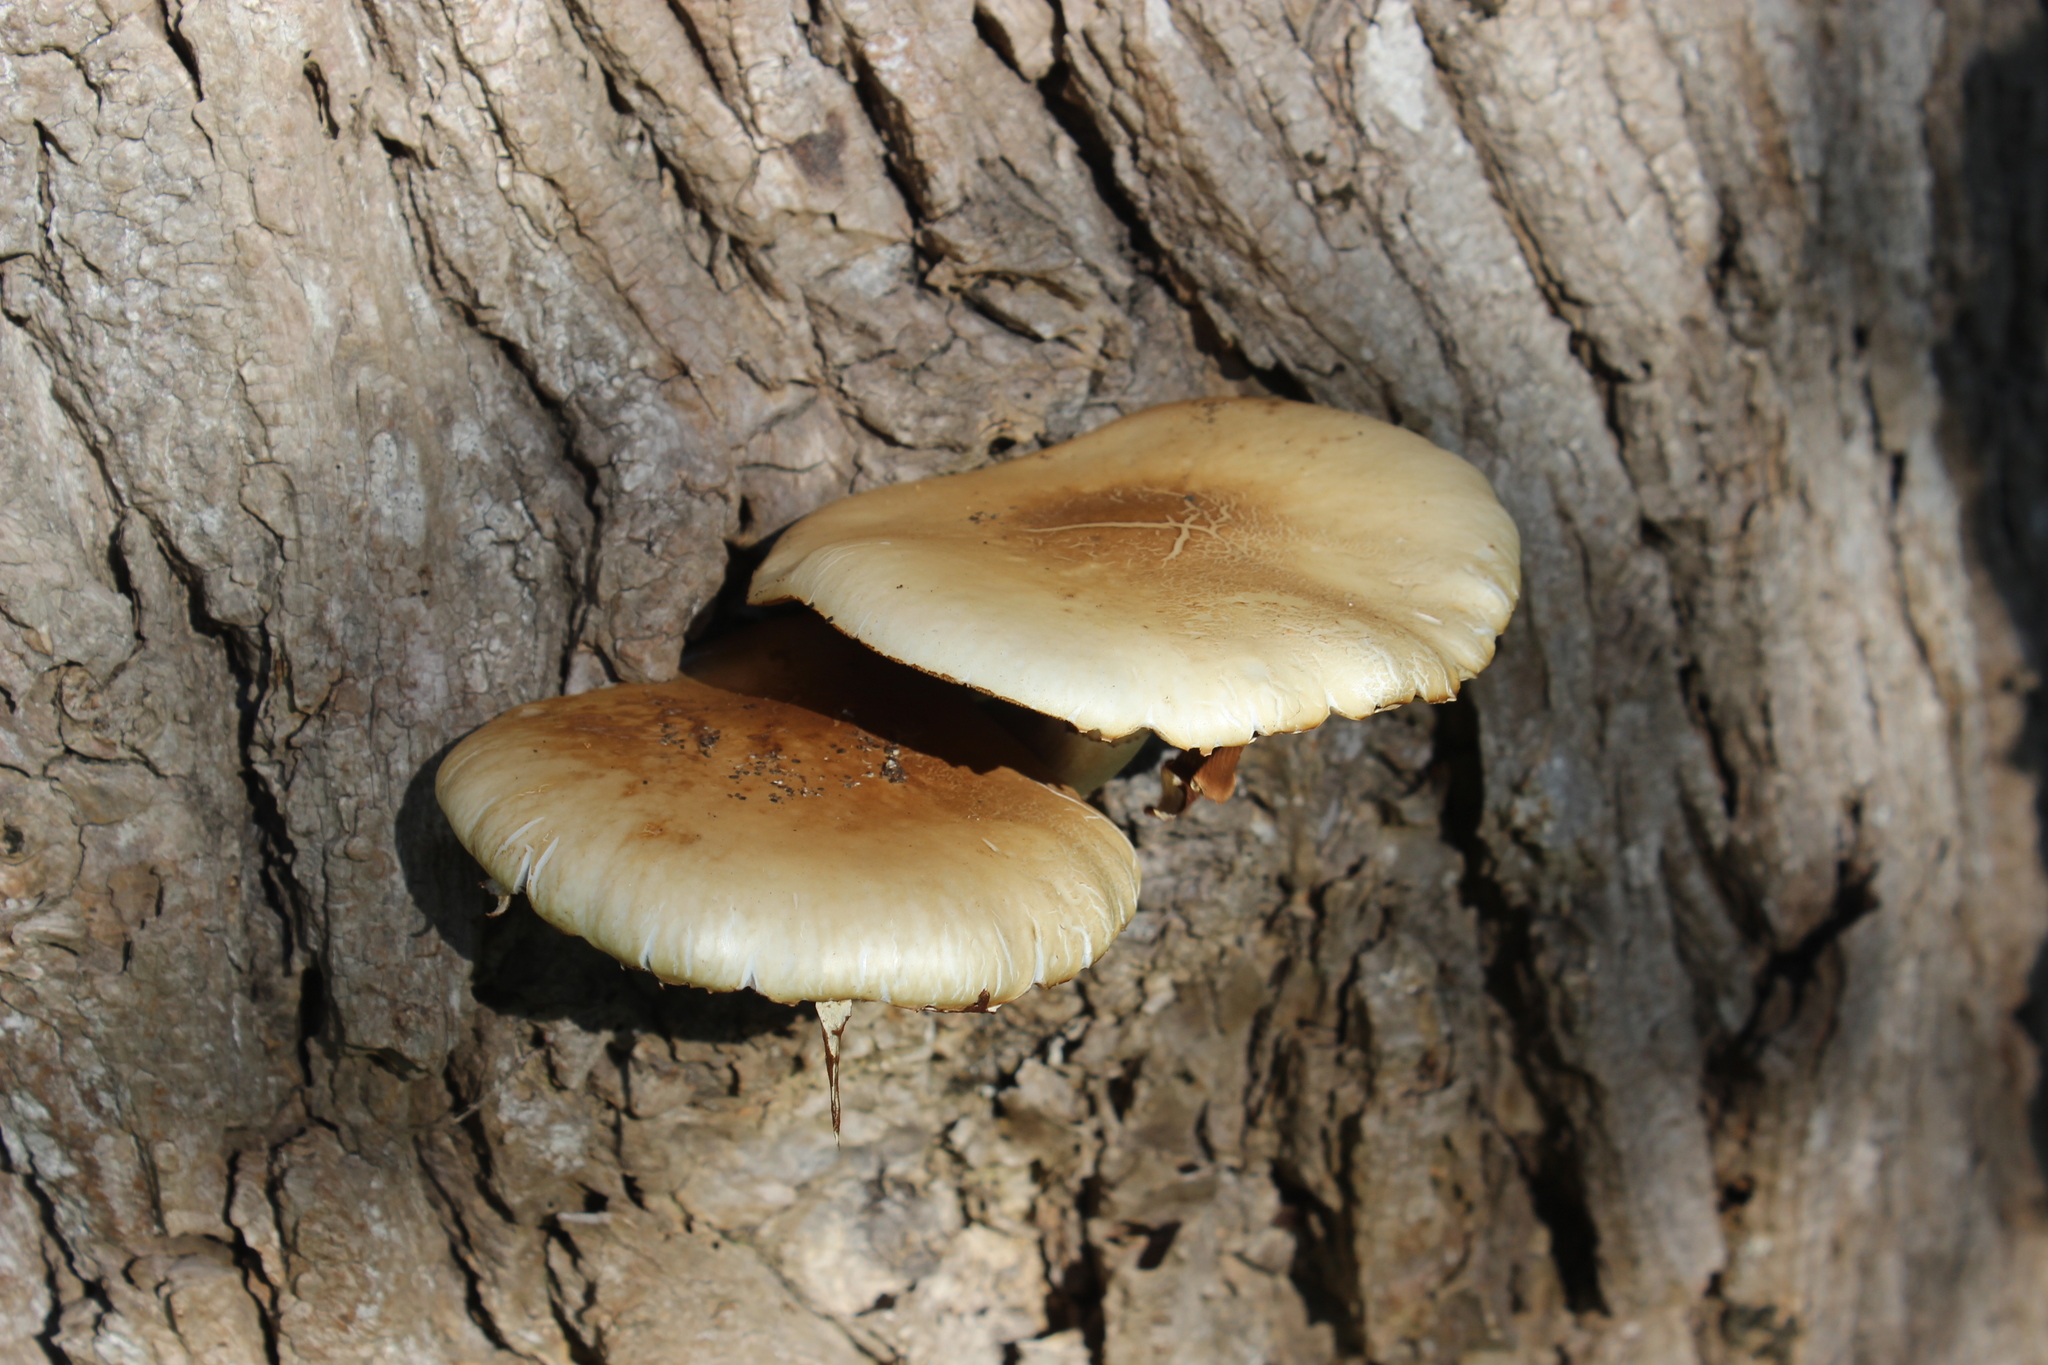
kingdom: Fungi
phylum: Basidiomycota
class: Agaricomycetes
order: Agaricales
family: Tubariaceae
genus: Cyclocybe
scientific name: Cyclocybe parasitica
